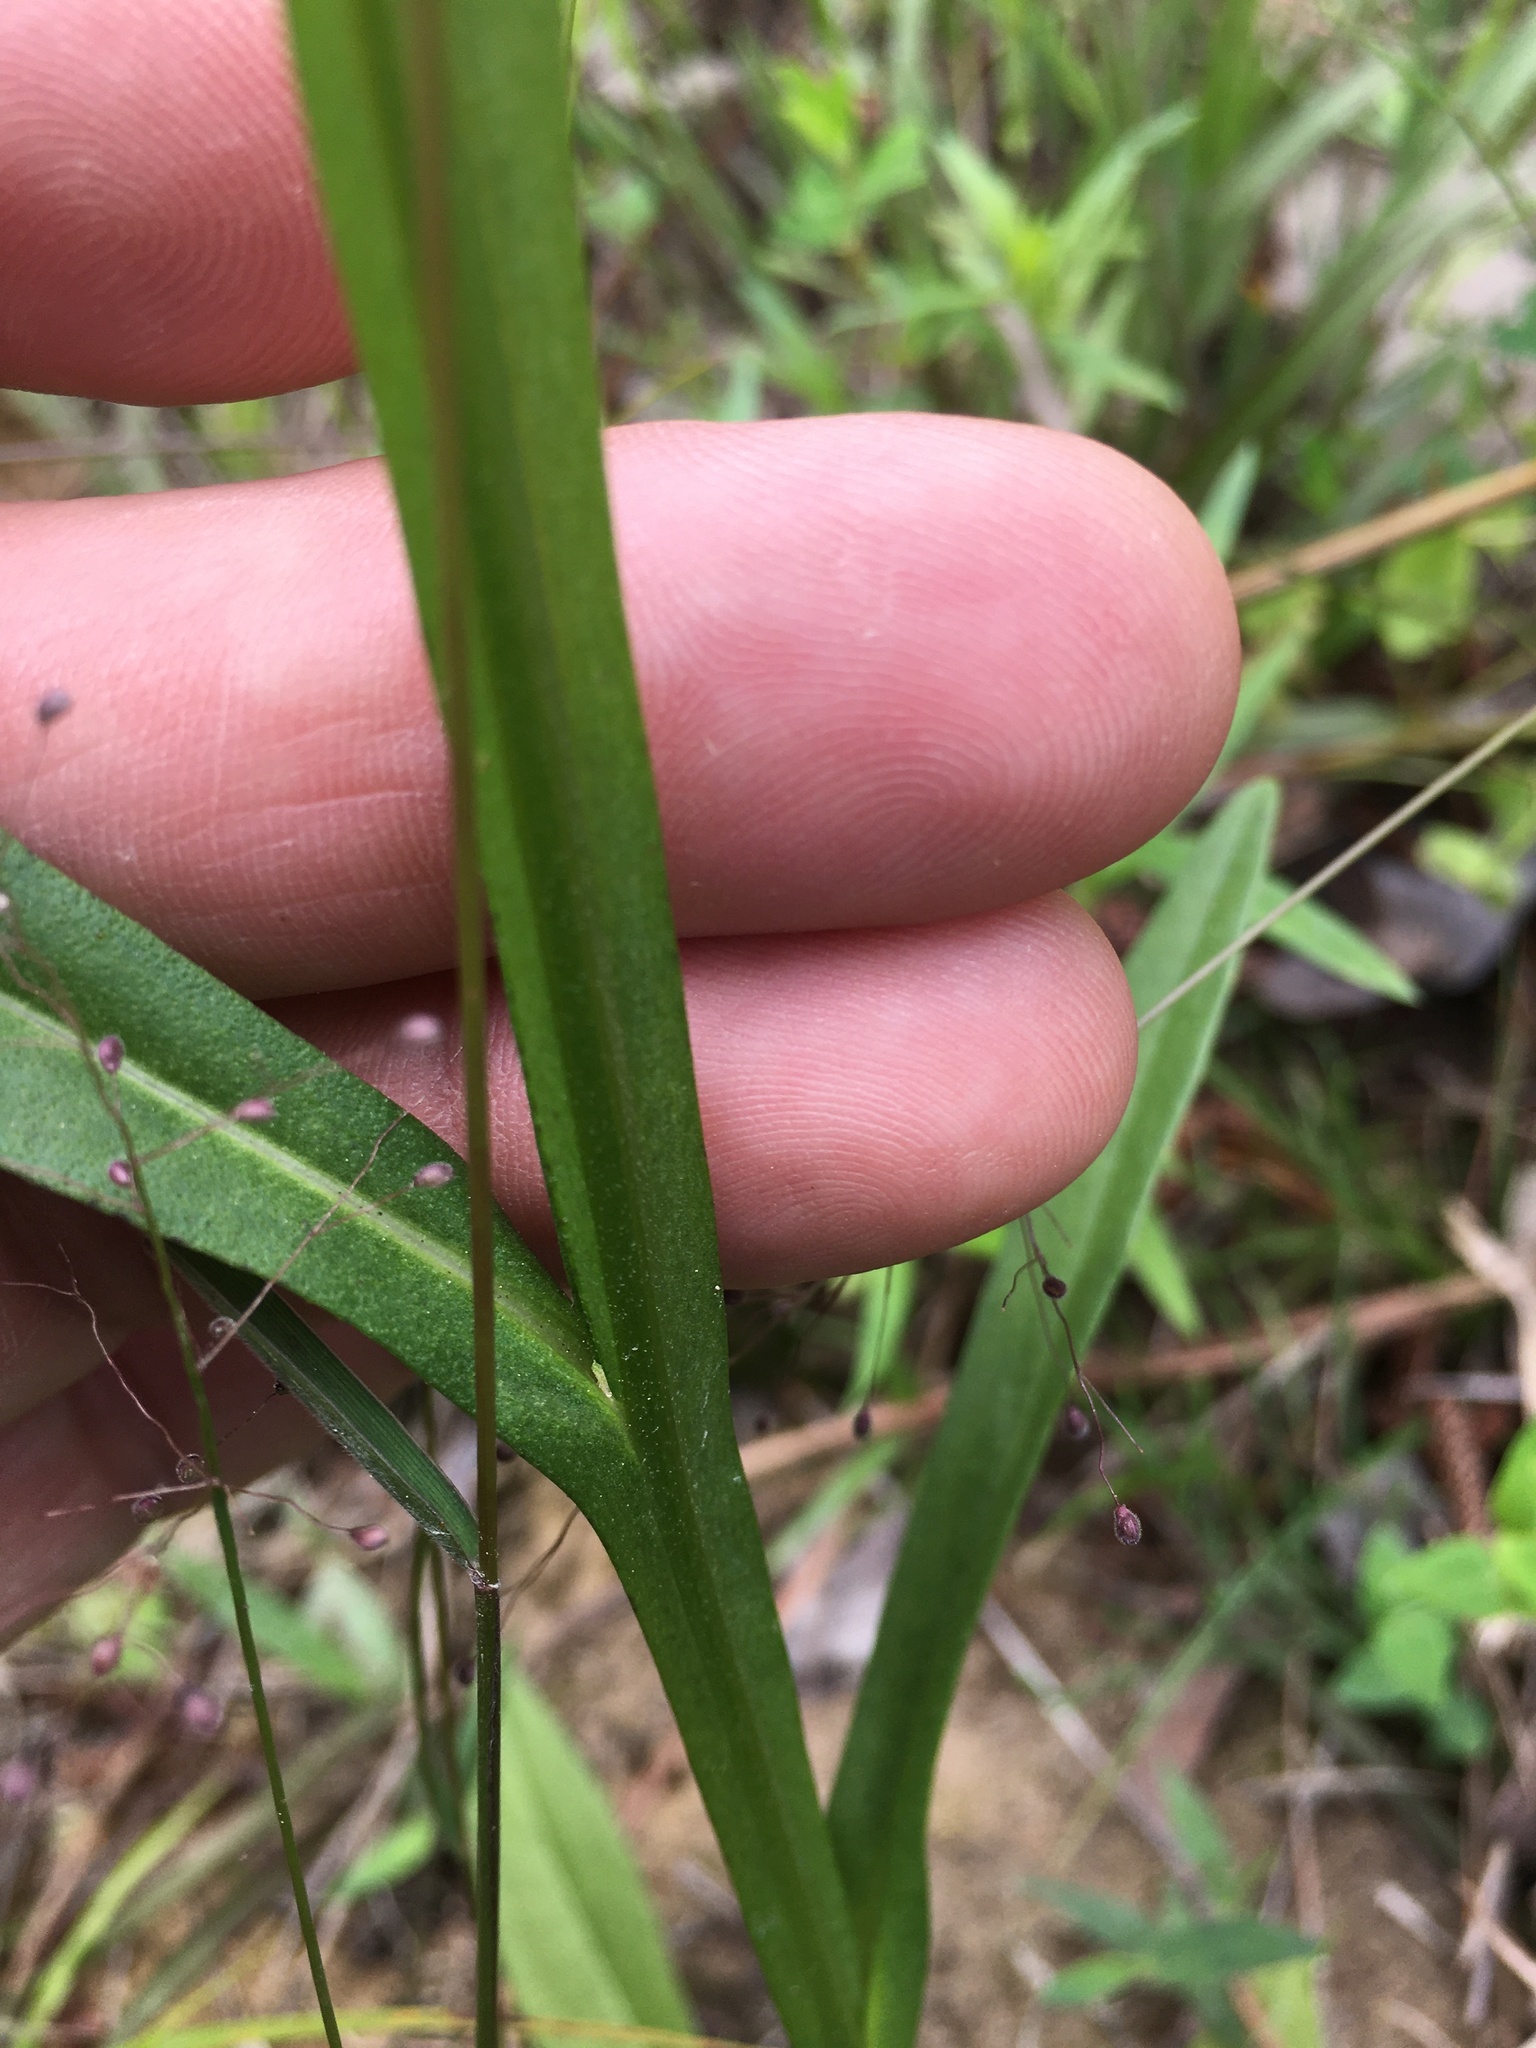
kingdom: Plantae
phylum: Tracheophyta
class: Magnoliopsida
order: Asterales
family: Asteraceae
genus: Helenium
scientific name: Helenium flexuosum
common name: Naked-flowered sneezeweed
